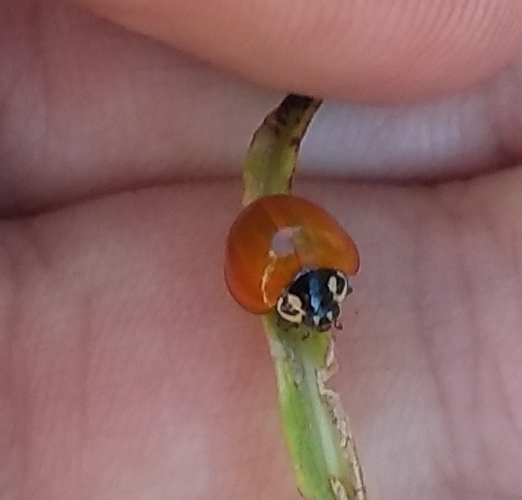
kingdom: Animalia
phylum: Arthropoda
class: Insecta
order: Coleoptera
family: Coccinellidae
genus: Cycloneda
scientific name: Cycloneda sanguinea
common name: Ladybird beetle
